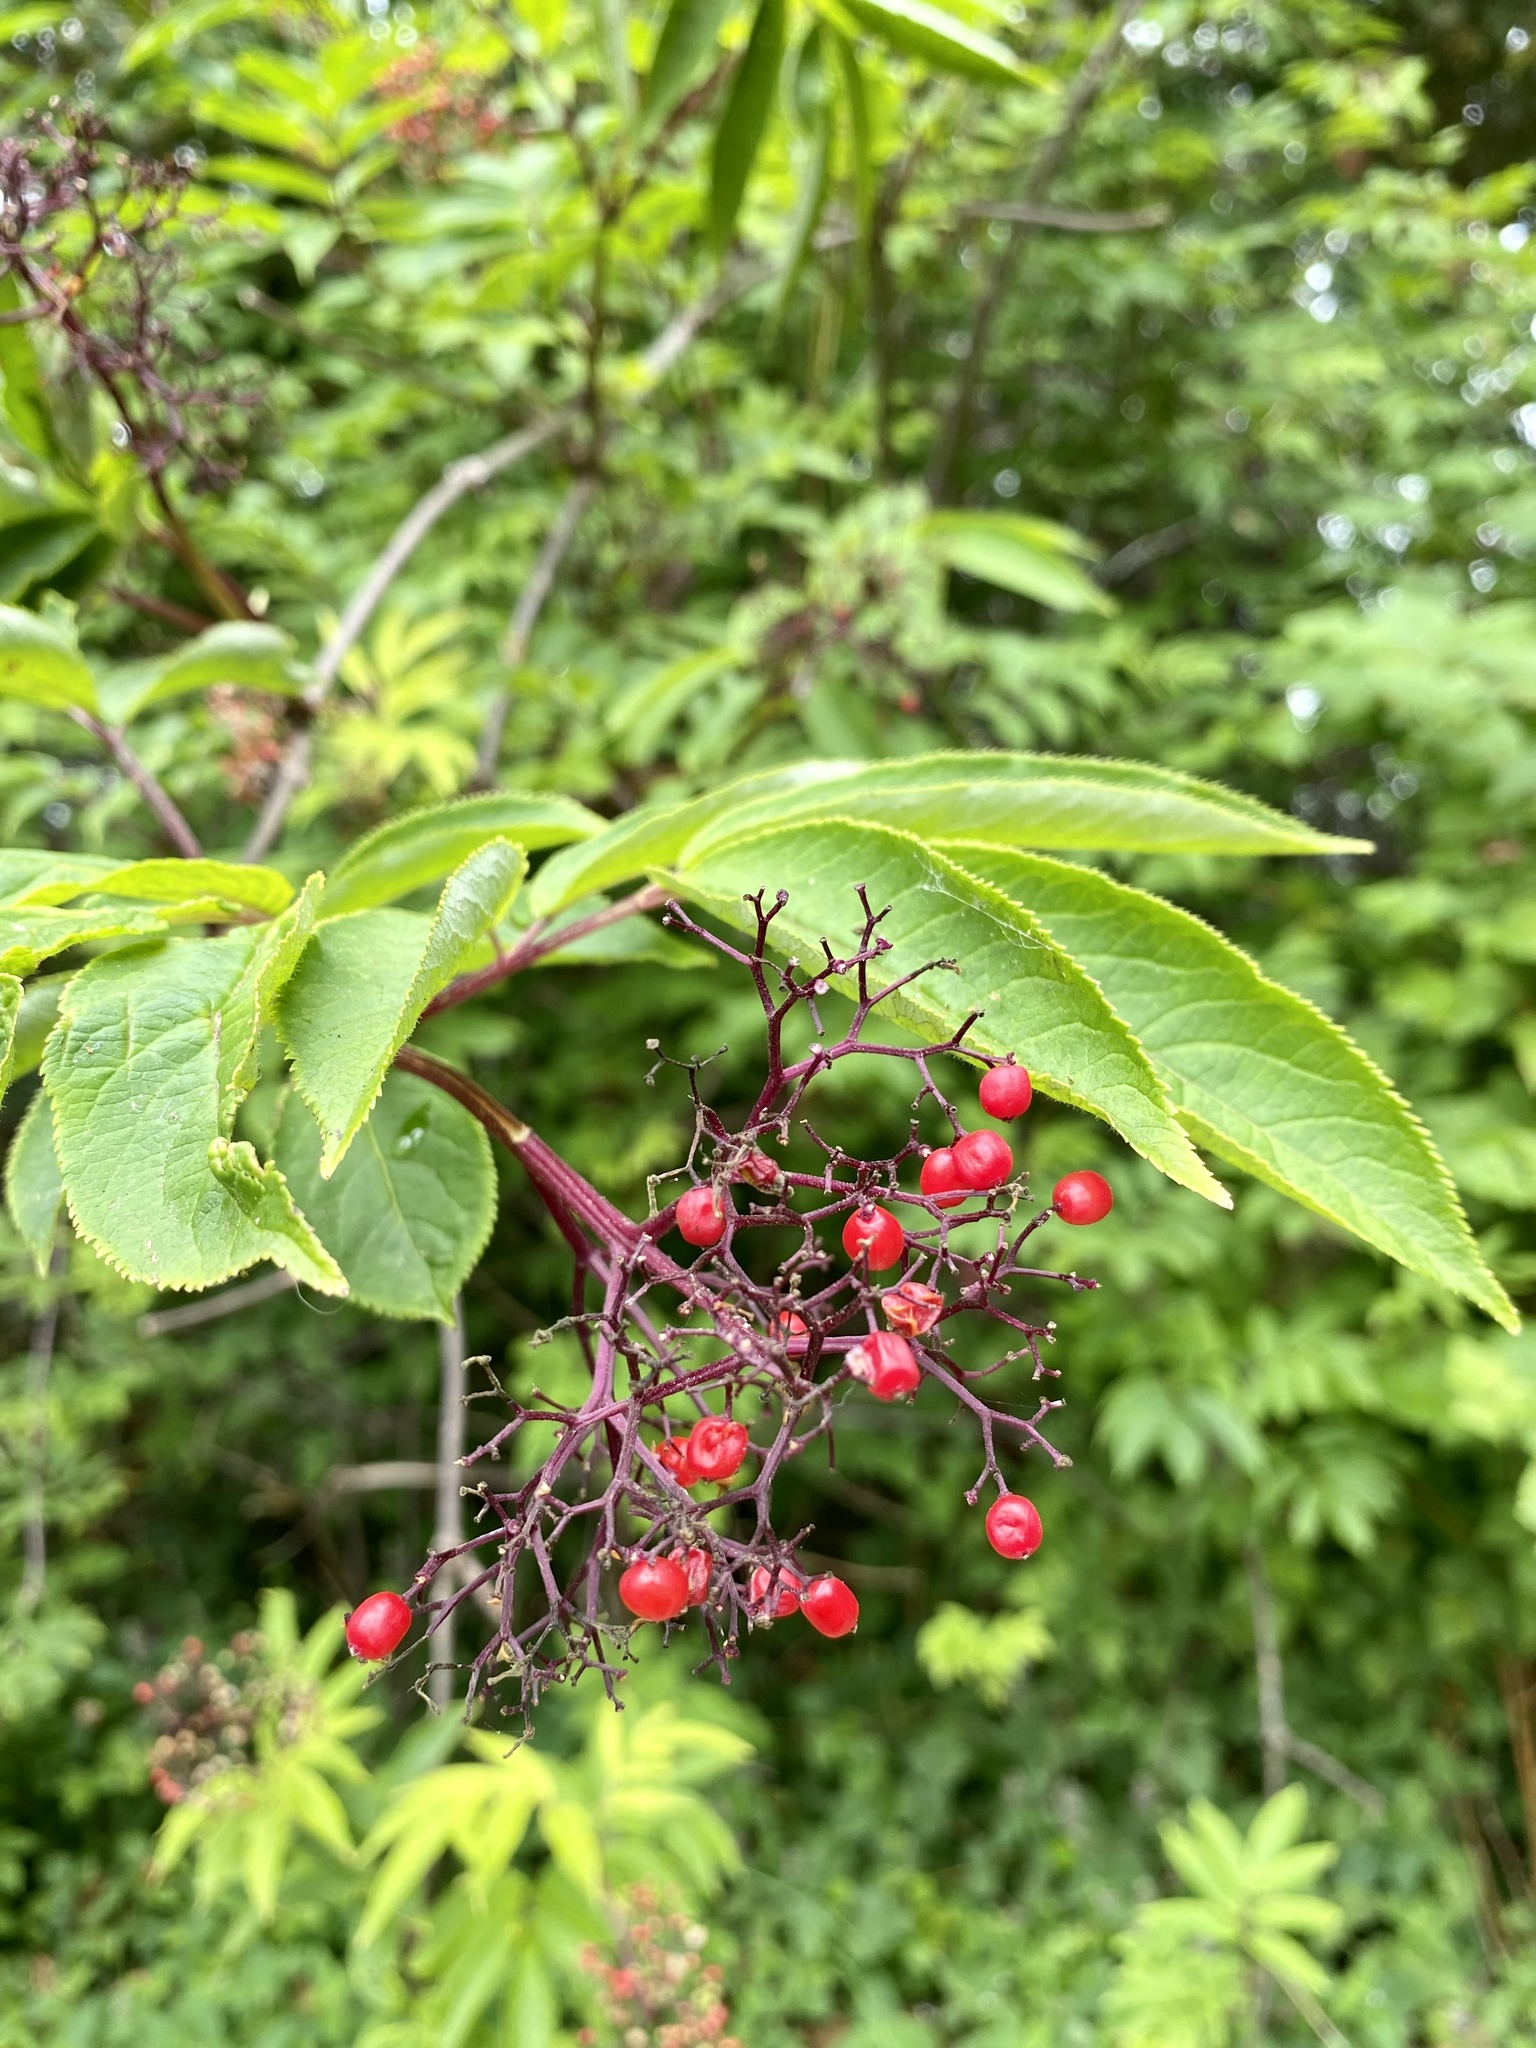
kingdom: Plantae
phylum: Tracheophyta
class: Magnoliopsida
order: Dipsacales
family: Viburnaceae
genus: Sambucus
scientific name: Sambucus racemosa
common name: Red-berried elder
